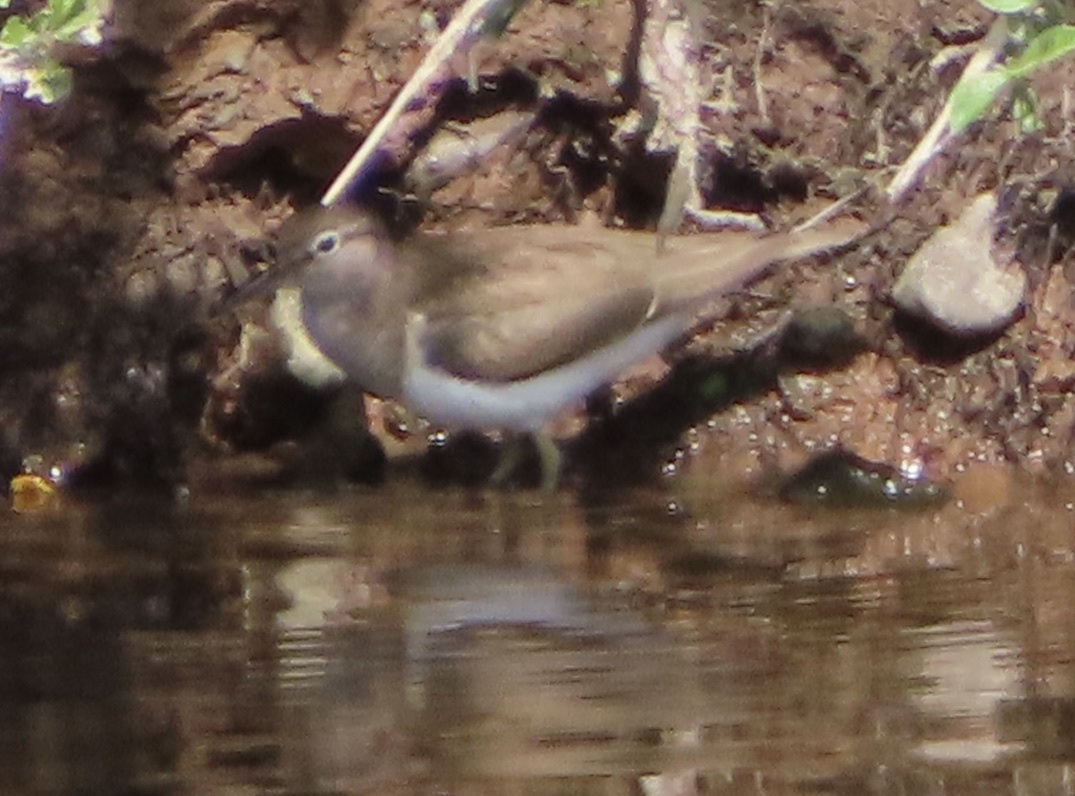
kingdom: Animalia
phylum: Chordata
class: Aves
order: Charadriiformes
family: Scolopacidae
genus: Actitis
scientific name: Actitis hypoleucos
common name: Common sandpiper
